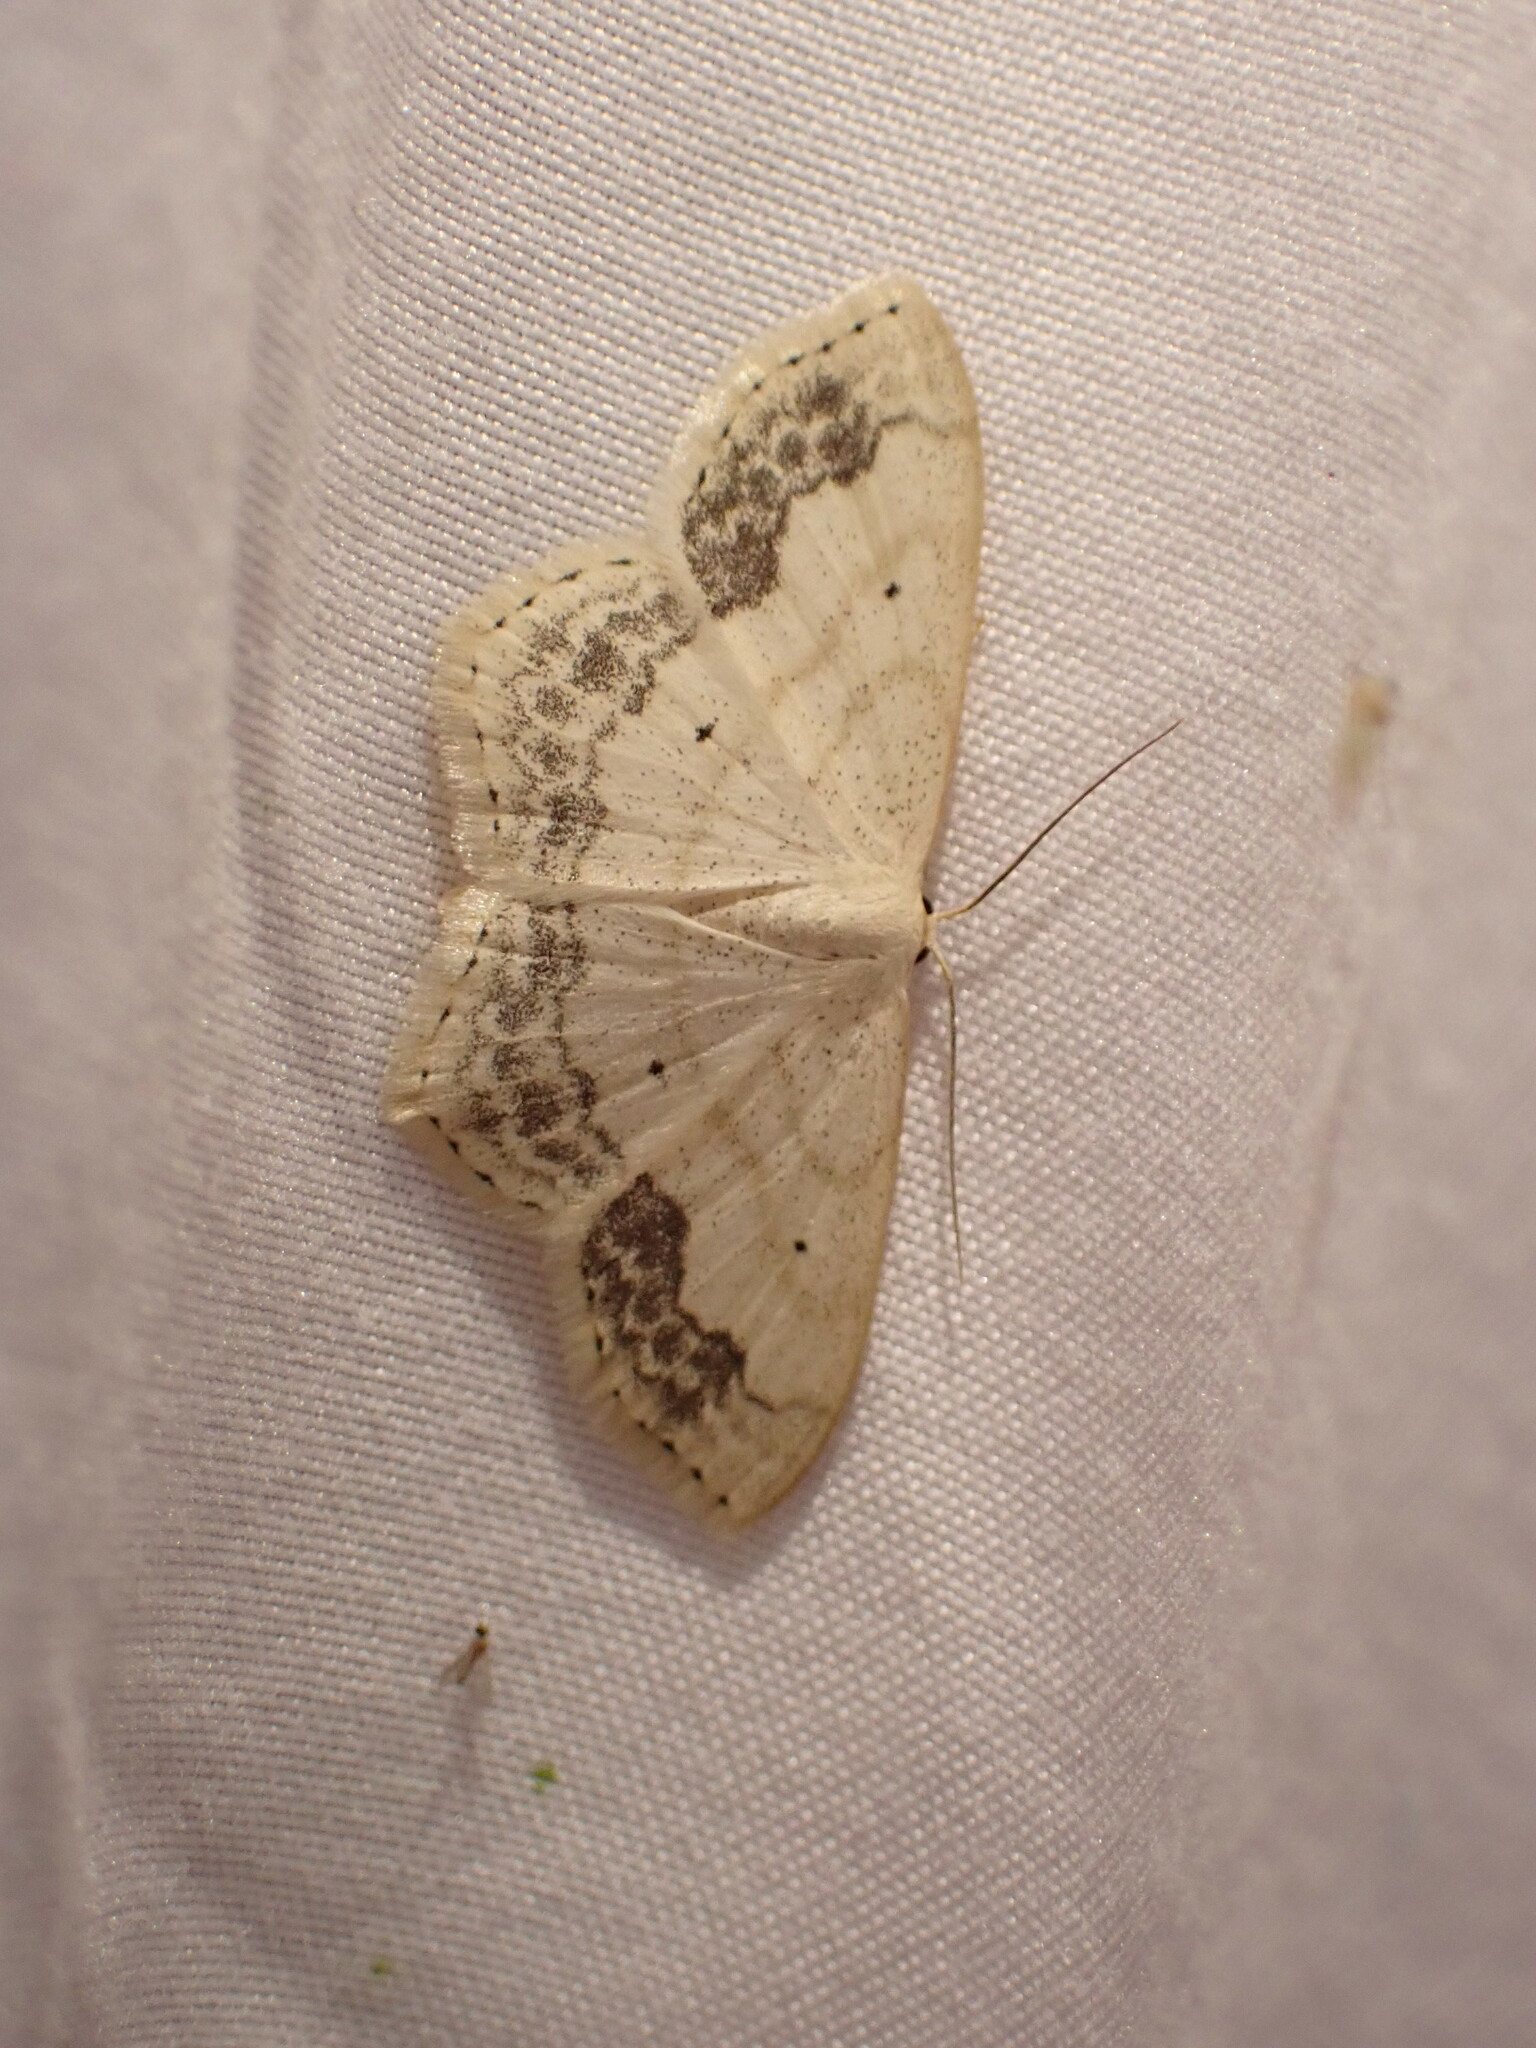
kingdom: Animalia
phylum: Arthropoda
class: Insecta
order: Lepidoptera
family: Geometridae
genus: Scopula
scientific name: Scopula limboundata
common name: Large lace border
